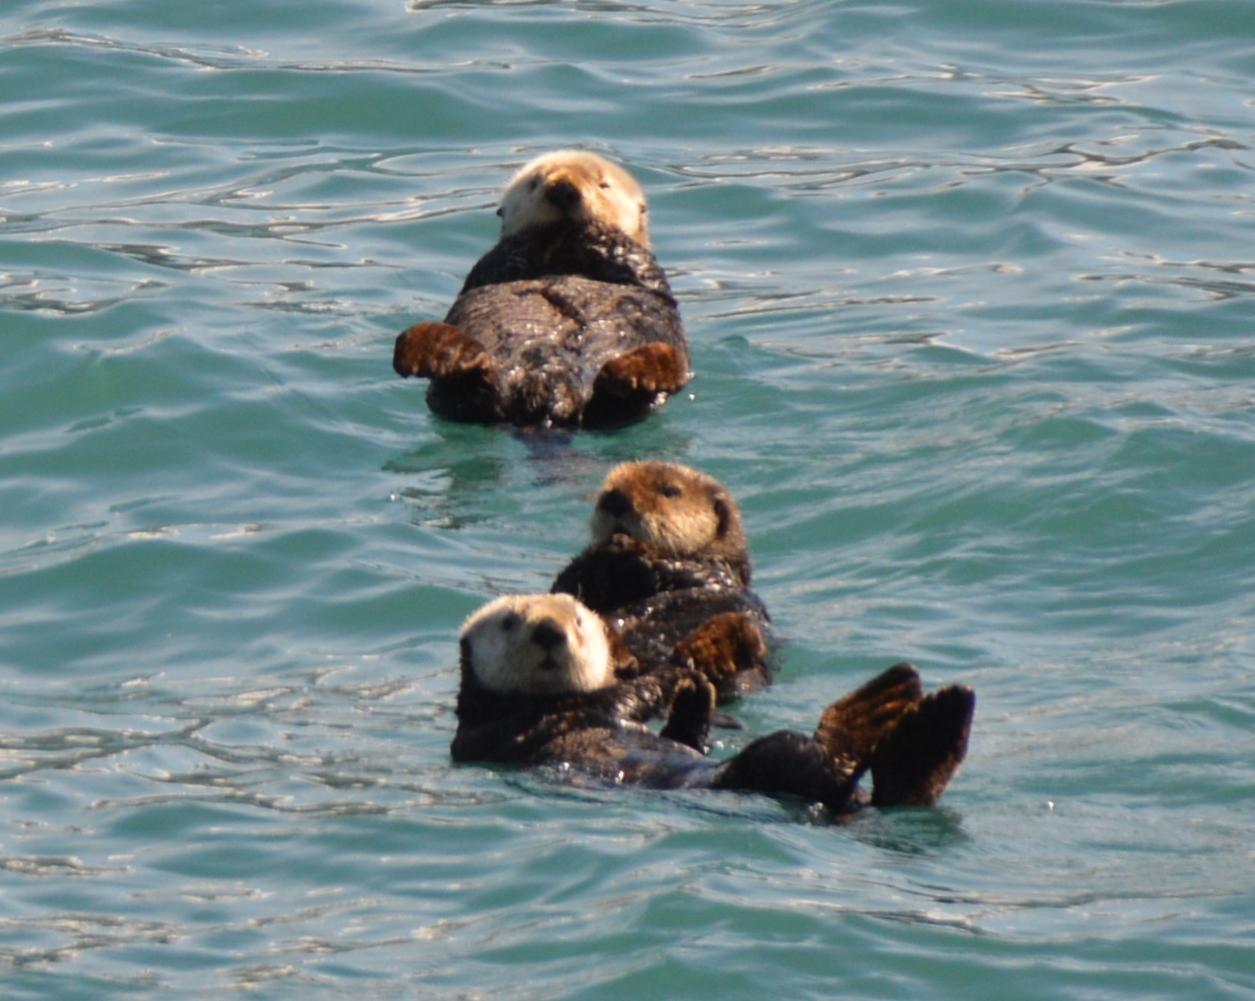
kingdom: Animalia
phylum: Chordata
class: Mammalia
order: Carnivora
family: Mustelidae
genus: Enhydra
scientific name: Enhydra lutris
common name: Sea otter
